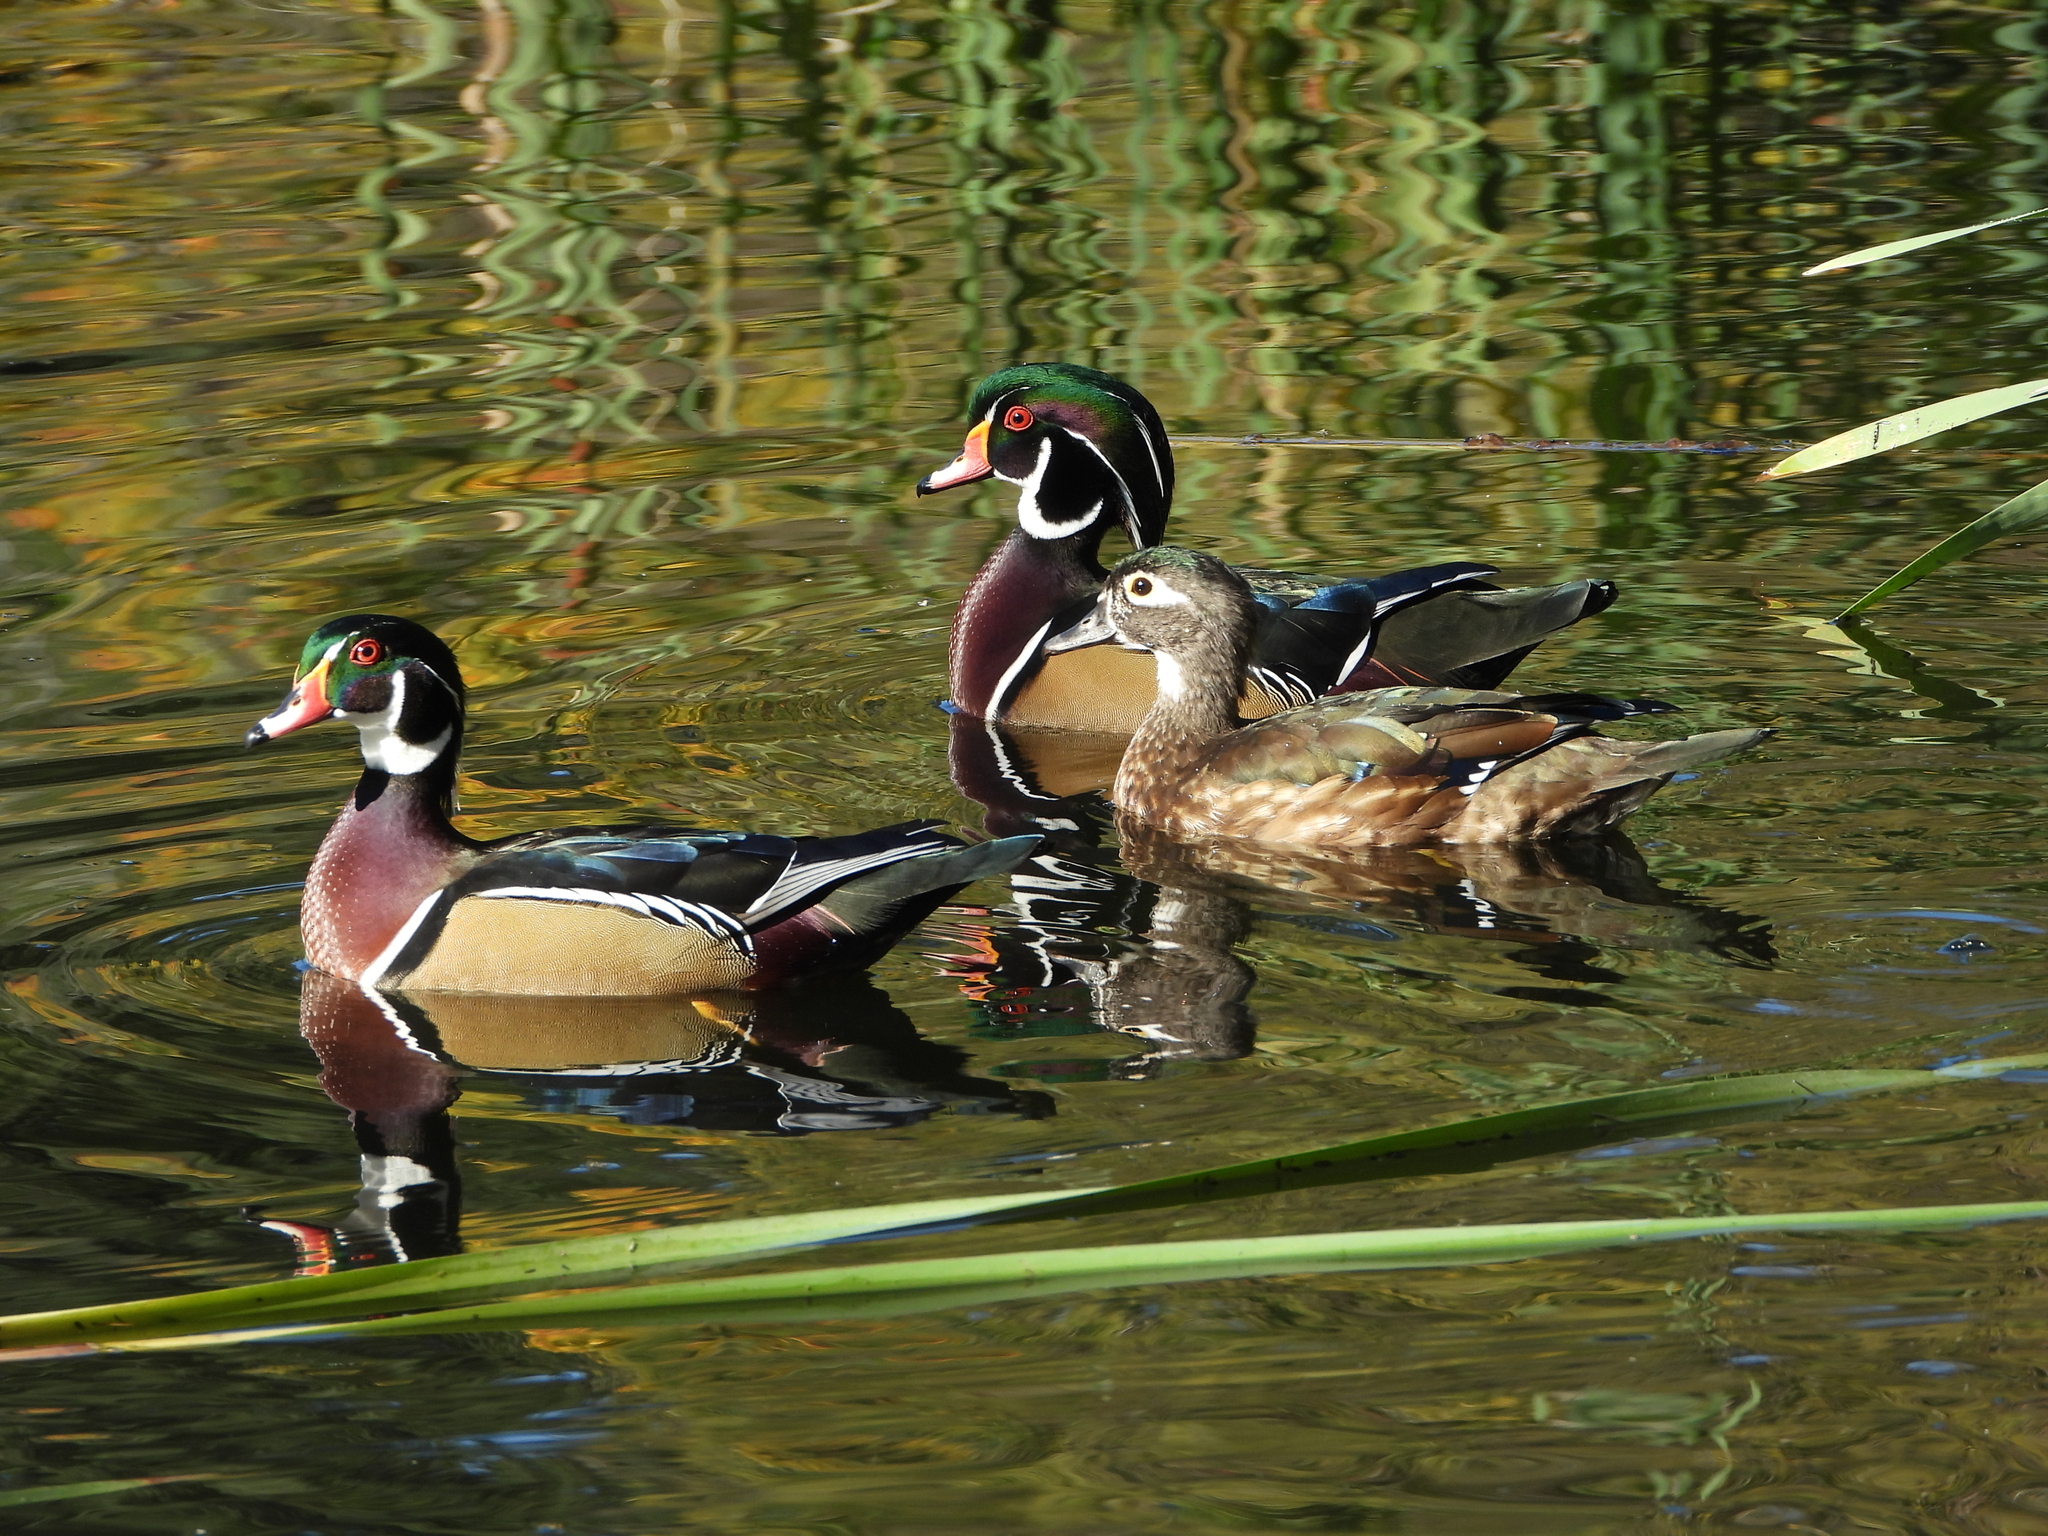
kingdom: Animalia
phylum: Chordata
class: Aves
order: Anseriformes
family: Anatidae
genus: Aix
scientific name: Aix sponsa
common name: Wood duck
